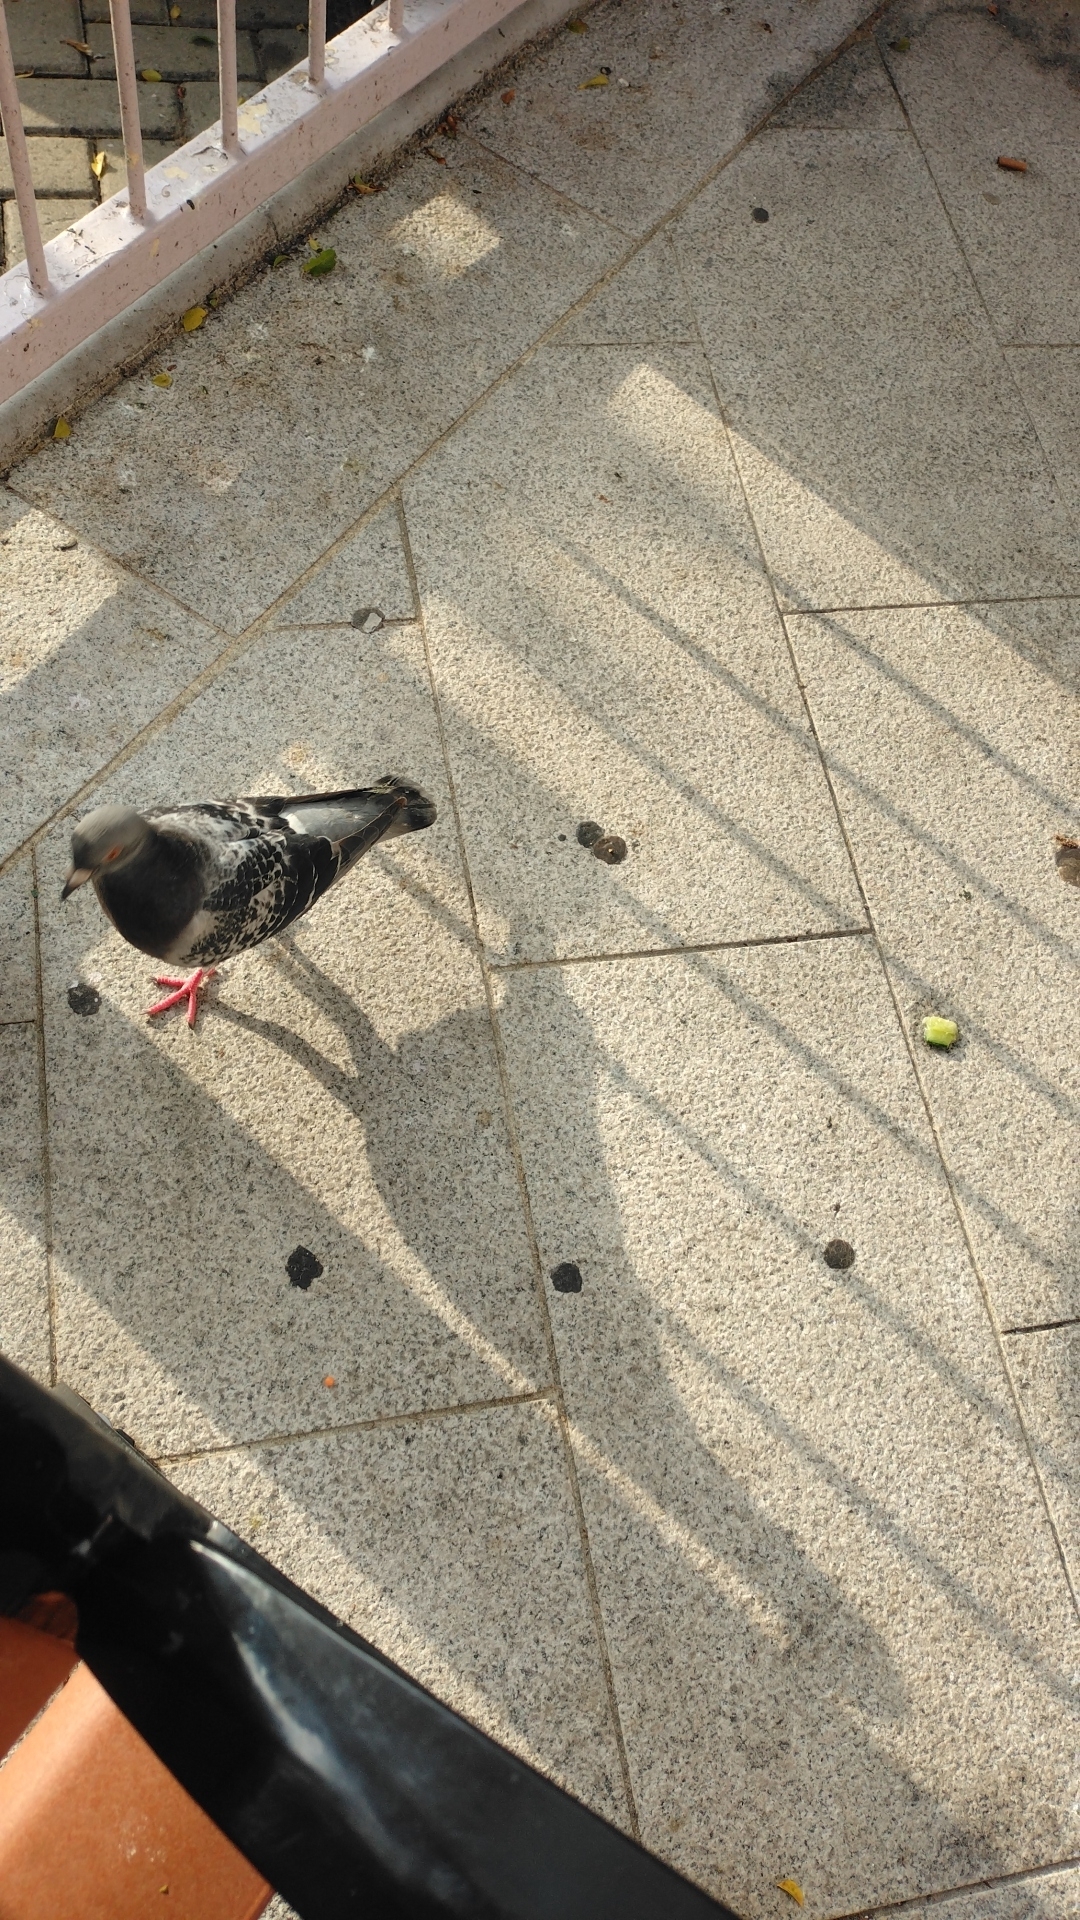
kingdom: Animalia
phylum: Chordata
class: Aves
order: Columbiformes
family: Columbidae
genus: Columba
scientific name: Columba livia
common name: Rock pigeon
